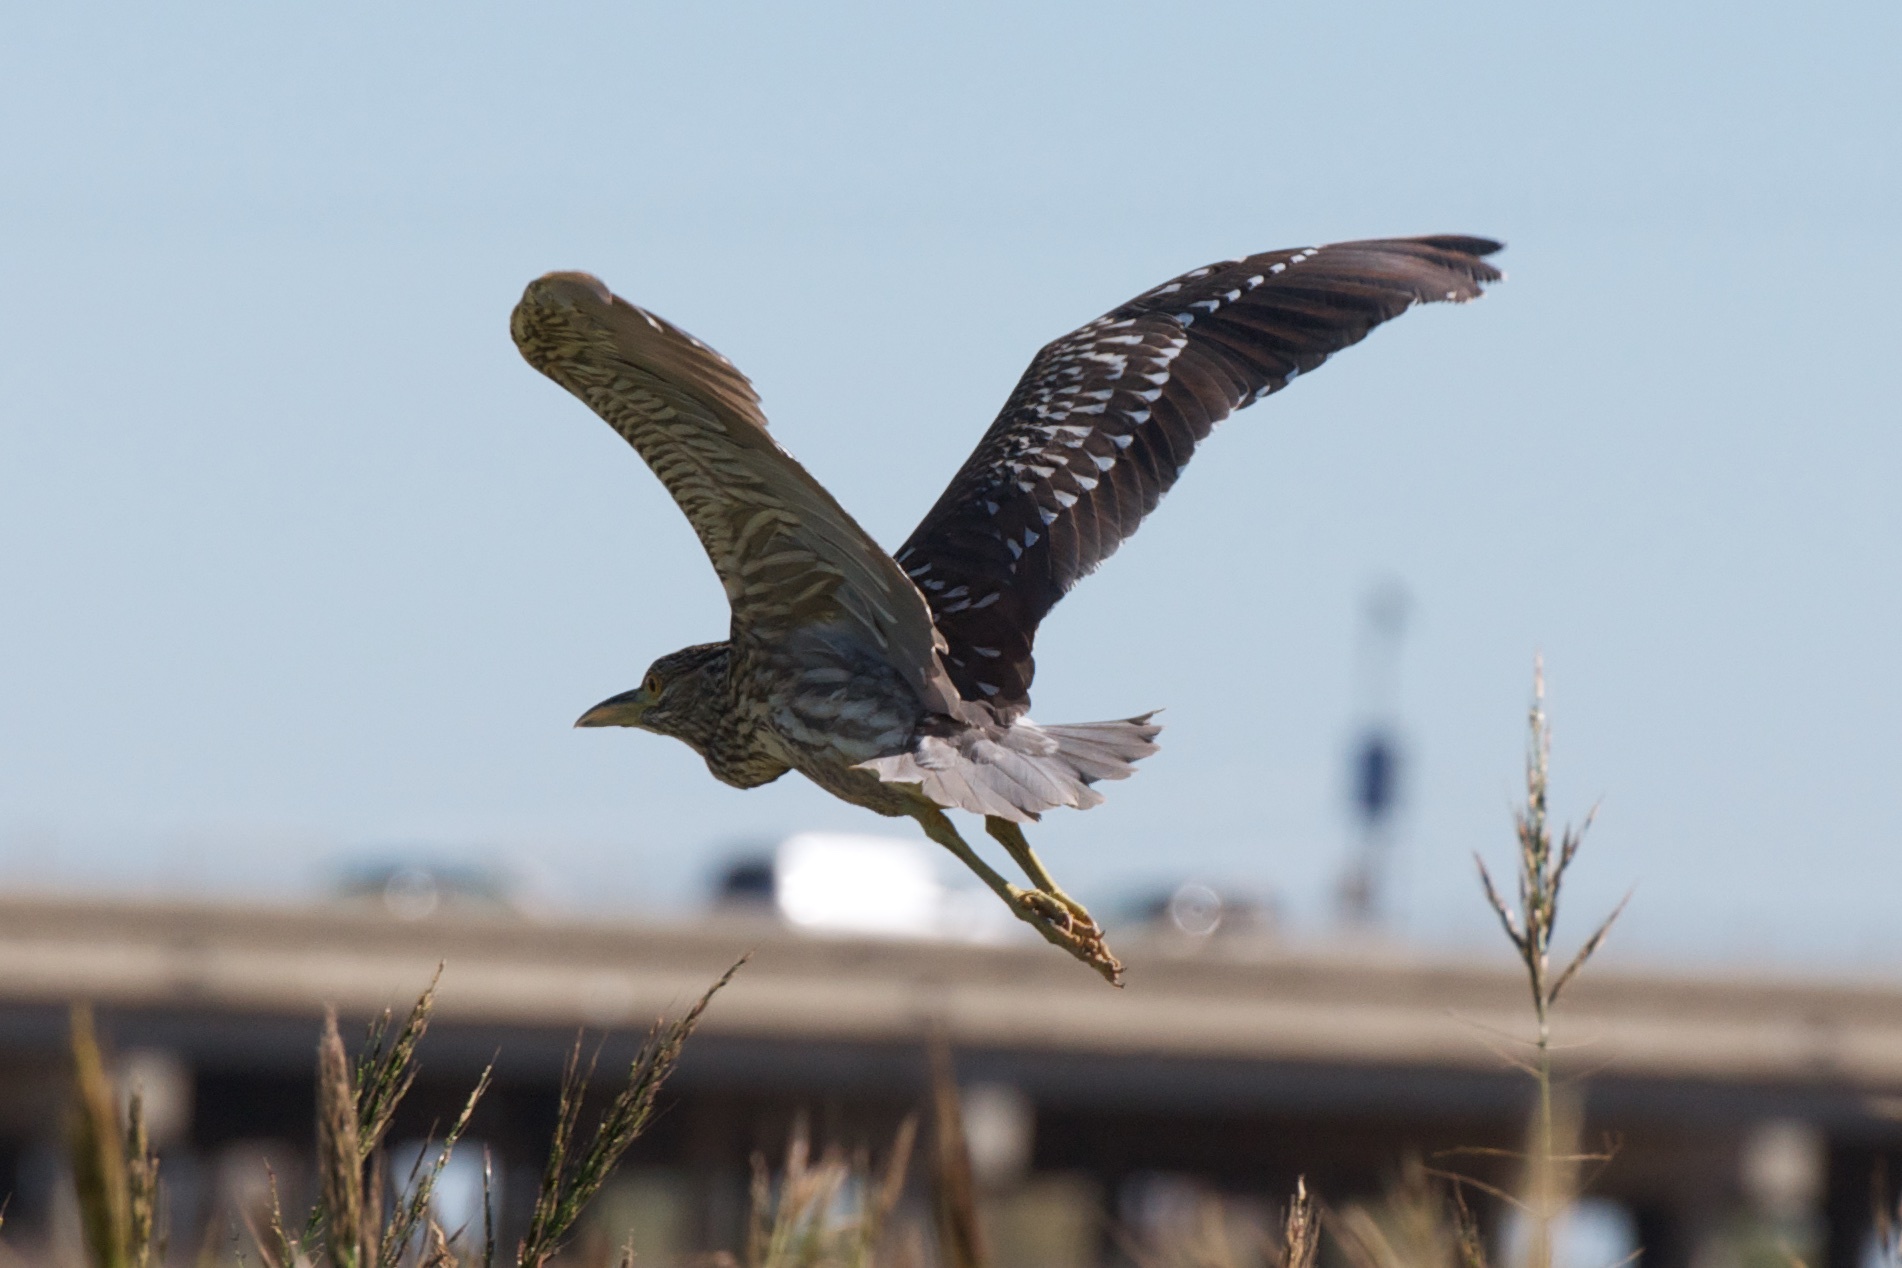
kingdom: Animalia
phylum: Chordata
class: Aves
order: Pelecaniformes
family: Ardeidae
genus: Nycticorax
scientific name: Nycticorax nycticorax
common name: Black-crowned night heron
